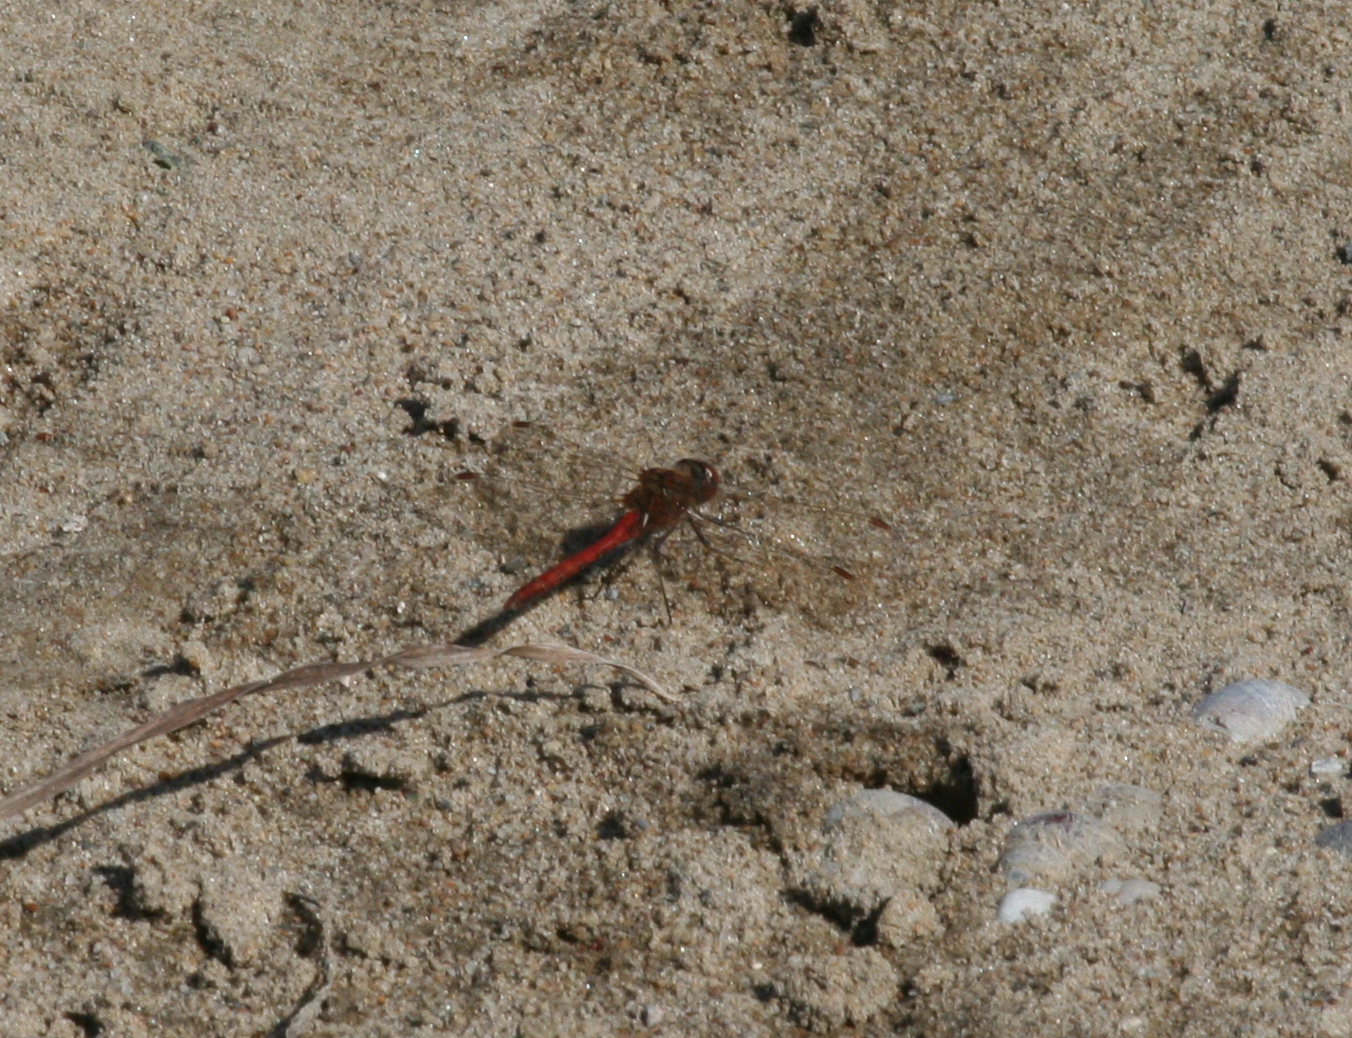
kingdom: Animalia
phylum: Arthropoda
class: Insecta
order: Odonata
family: Libellulidae
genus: Sympetrum
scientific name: Sympetrum vulgatum
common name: Vagrant darter
